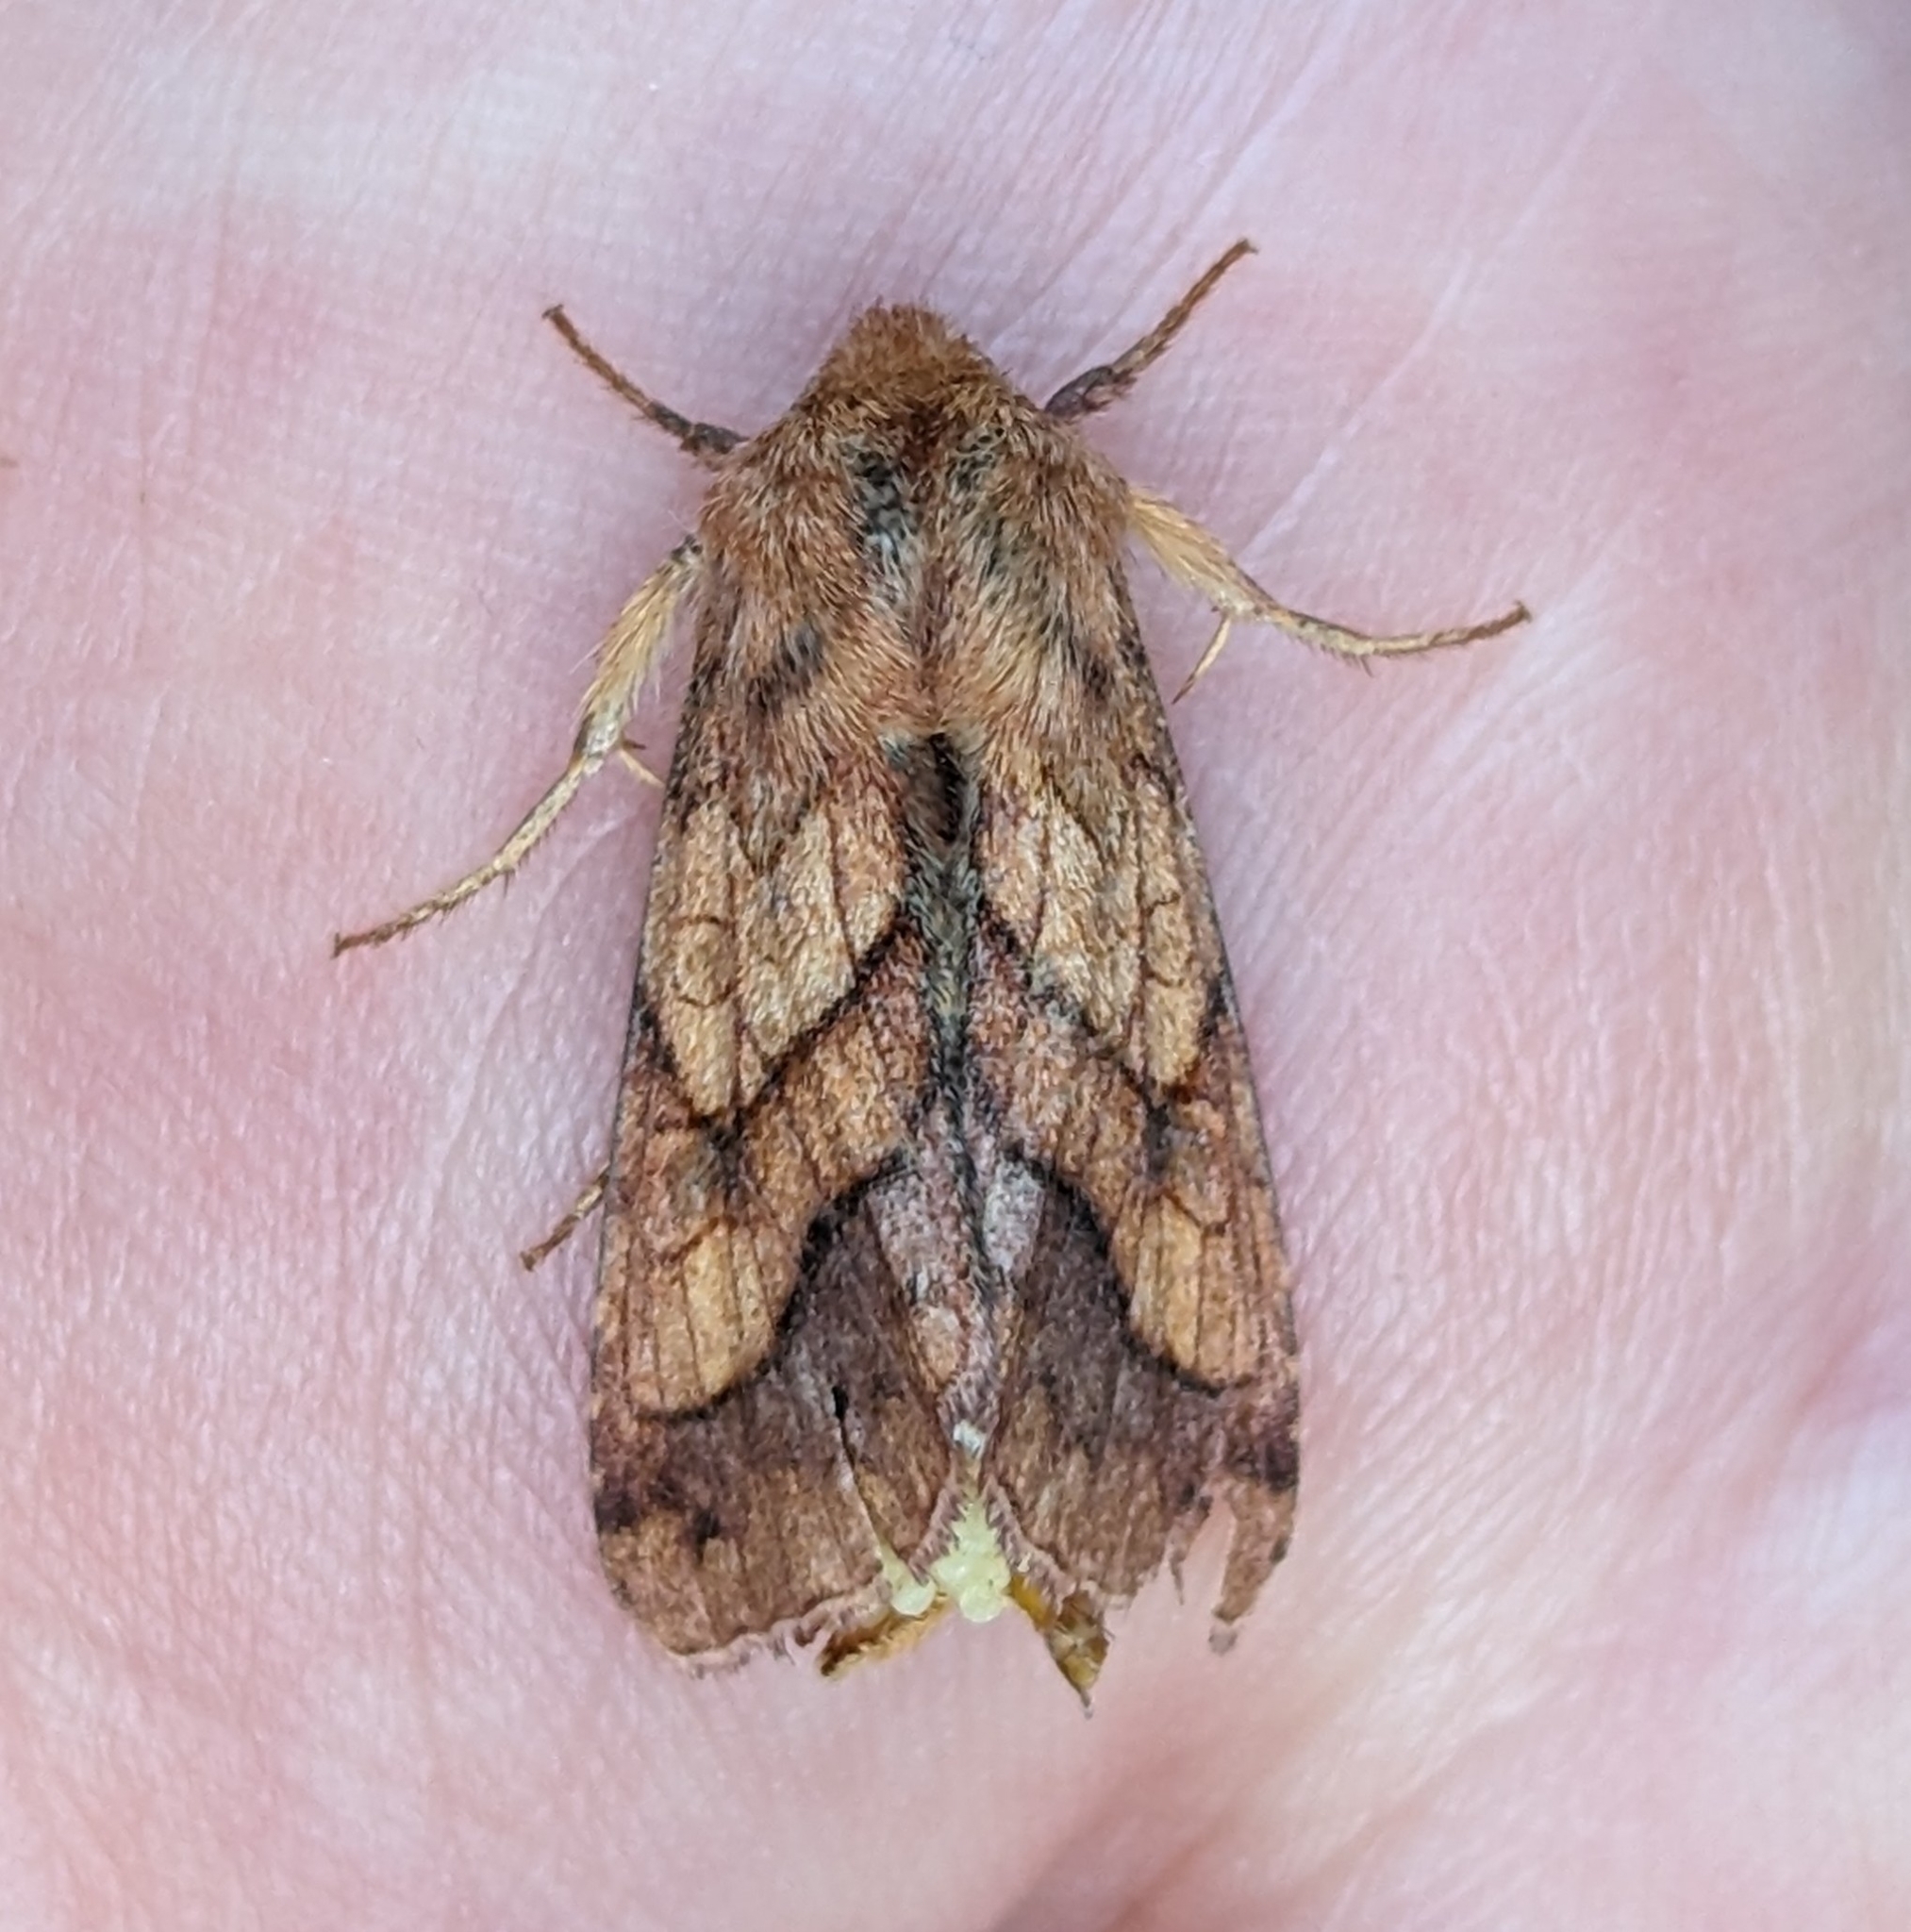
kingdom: Animalia
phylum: Arthropoda
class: Insecta
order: Lepidoptera
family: Noctuidae
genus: Pyrrhia
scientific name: Pyrrhia exprimens
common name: Purple-lined sallow
